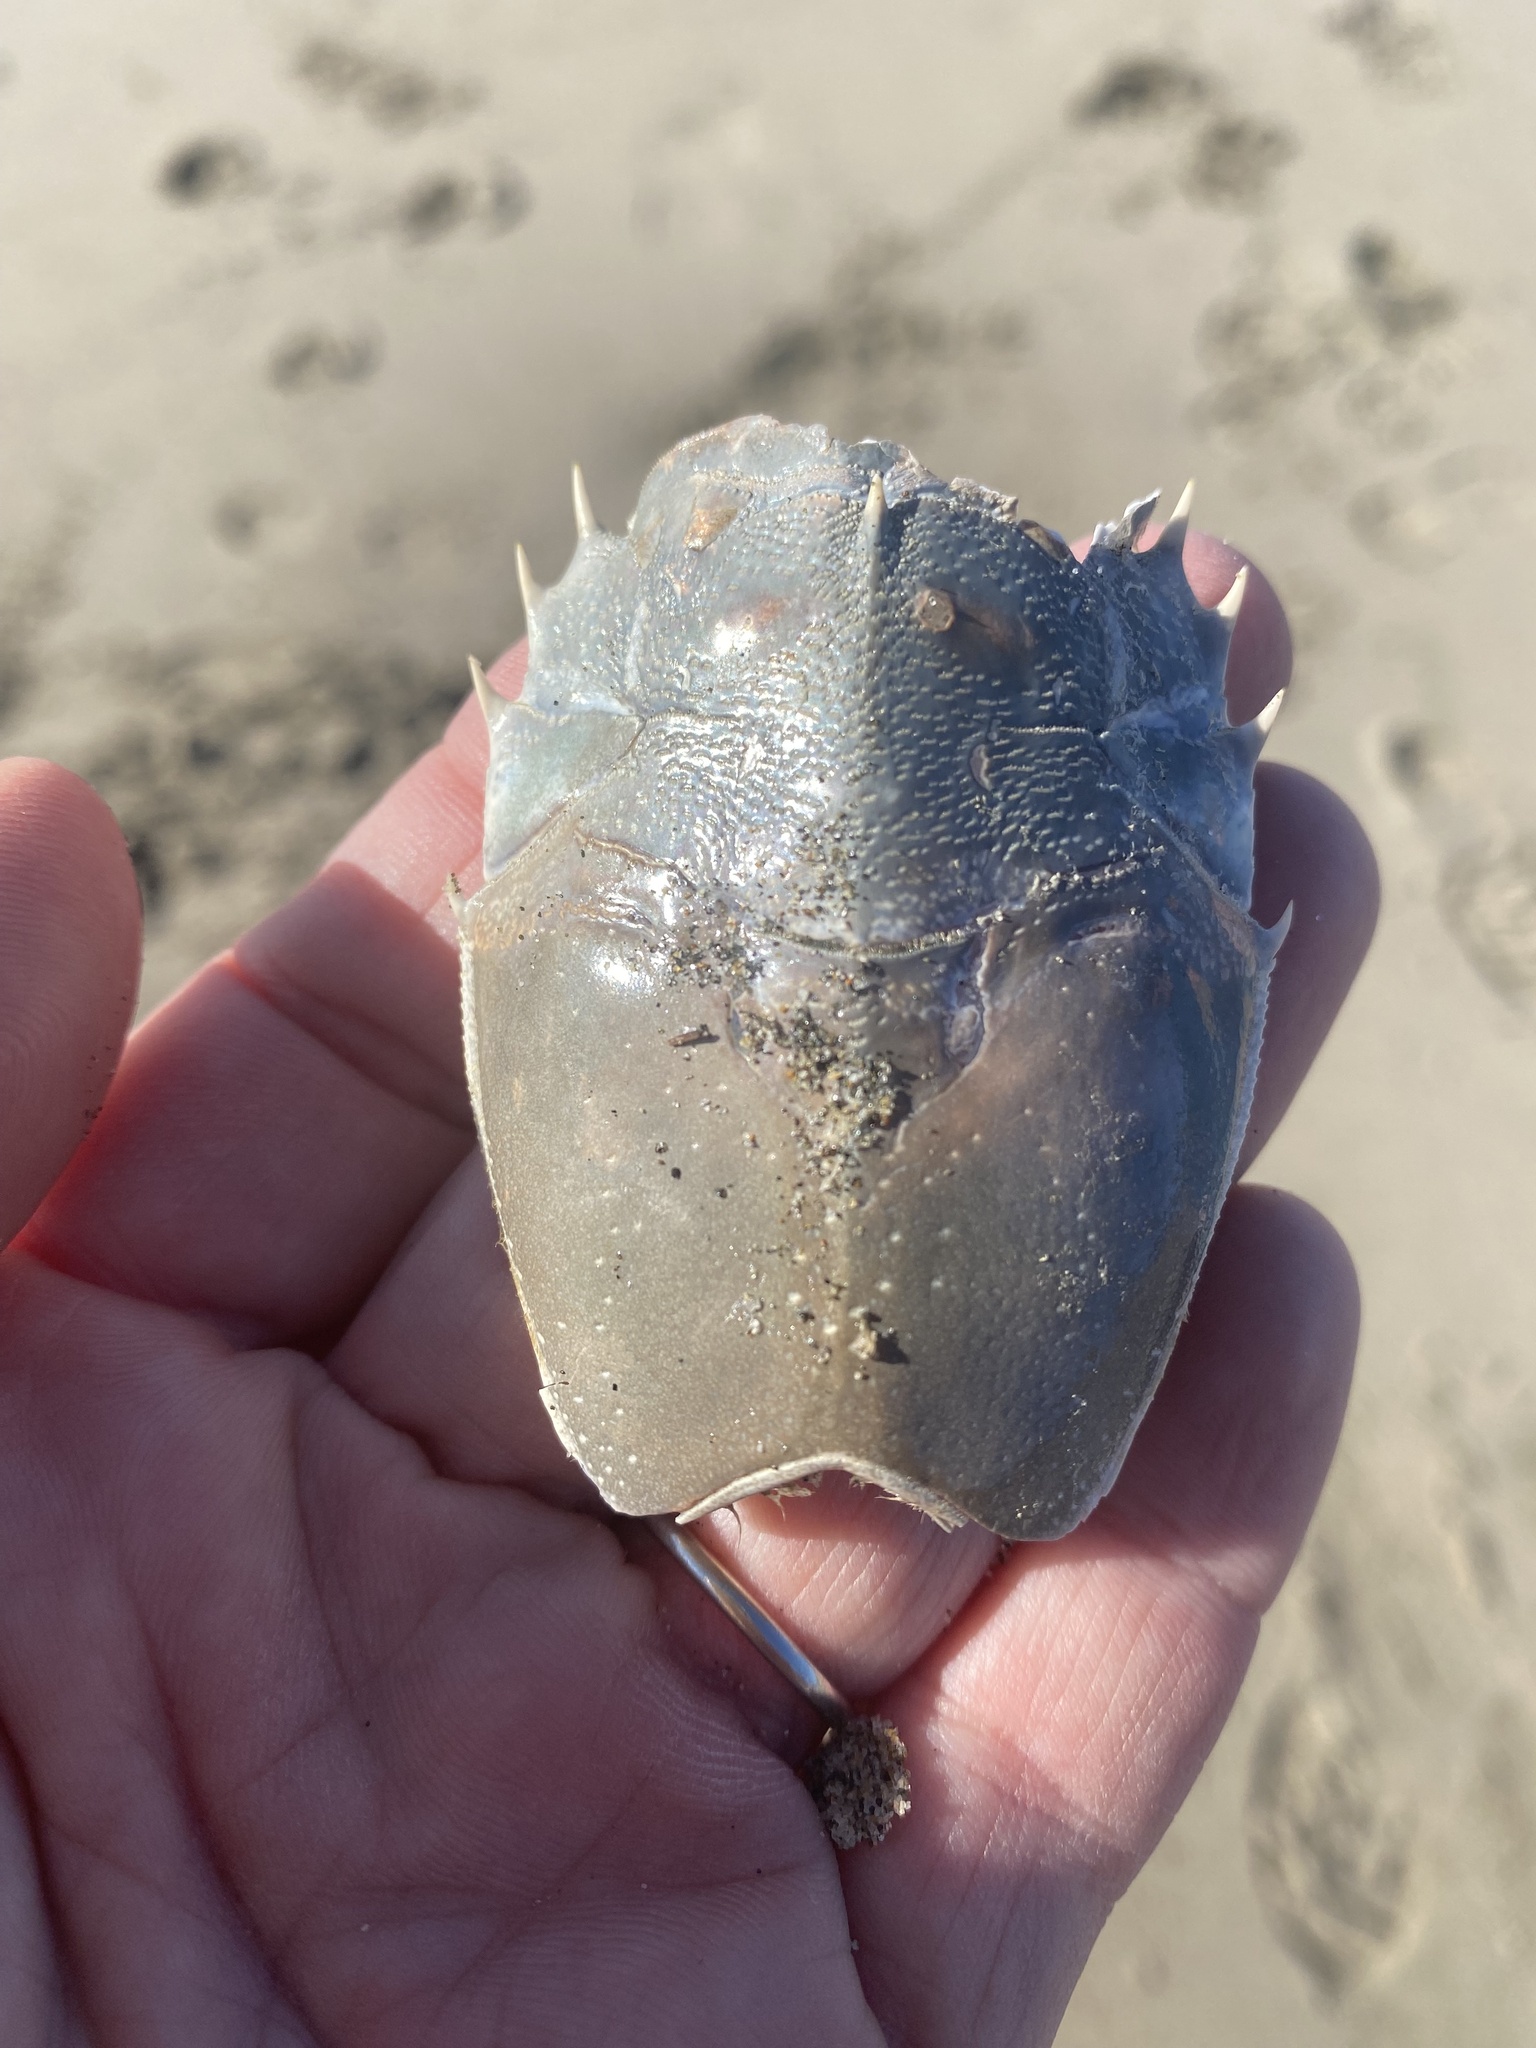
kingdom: Animalia
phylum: Arthropoda
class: Malacostraca
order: Decapoda
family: Blepharipodidae
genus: Blepharipoda
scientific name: Blepharipoda occidentalis
